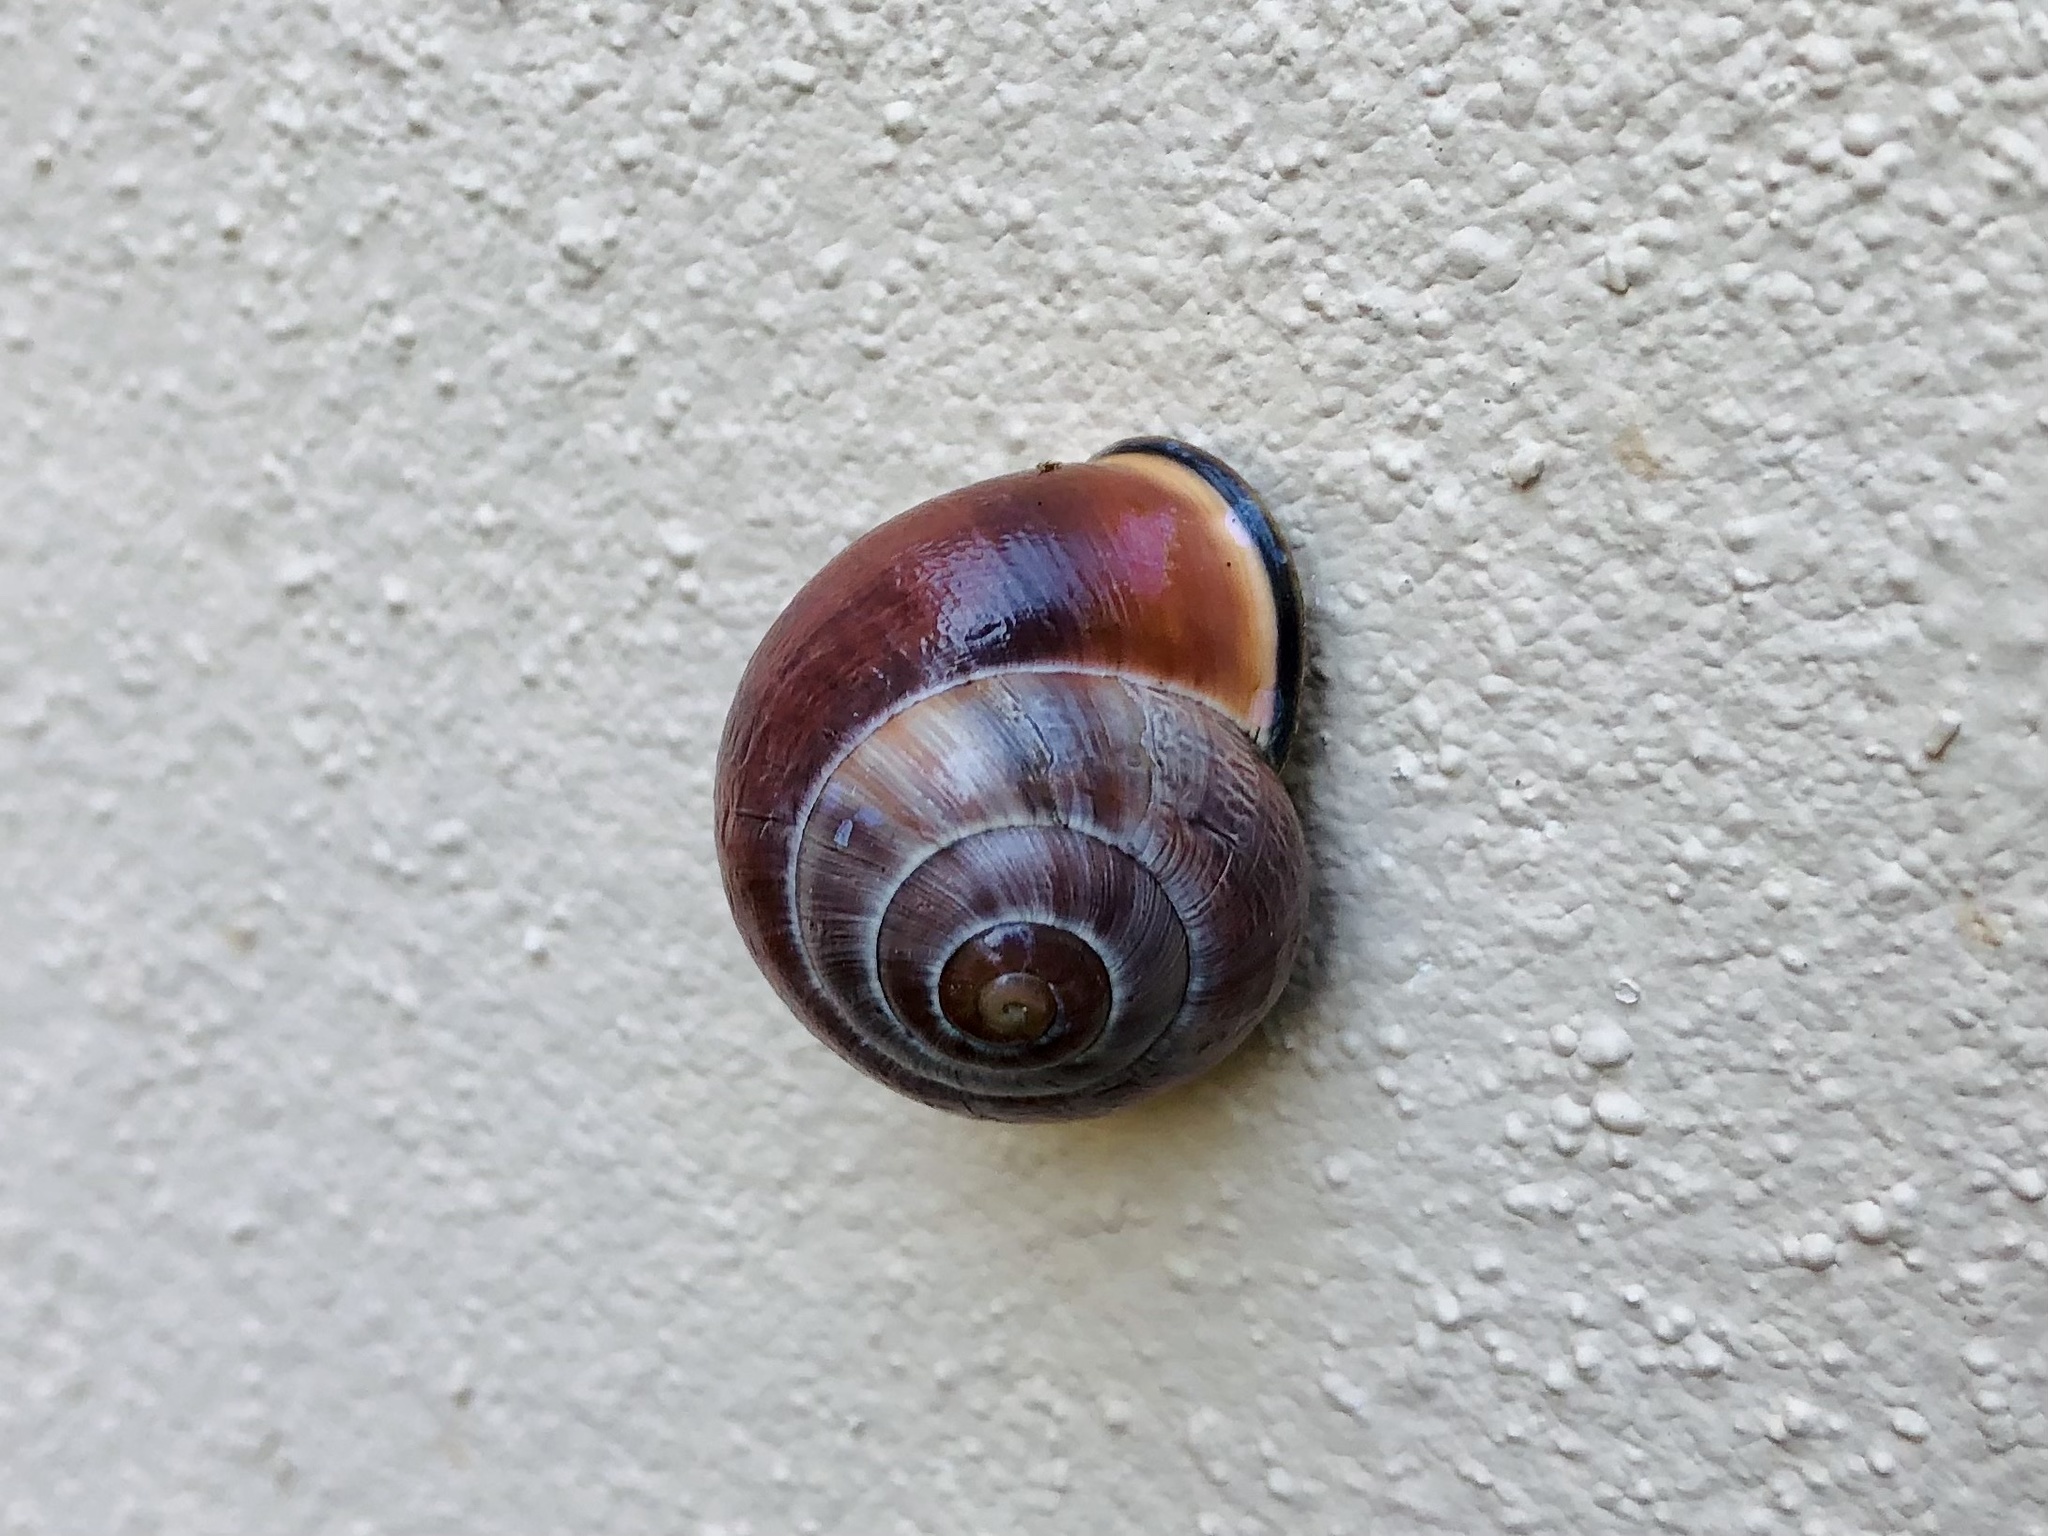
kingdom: Animalia
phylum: Mollusca
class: Gastropoda
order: Stylommatophora
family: Helicidae
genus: Cepaea
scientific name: Cepaea nemoralis
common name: Grovesnail
